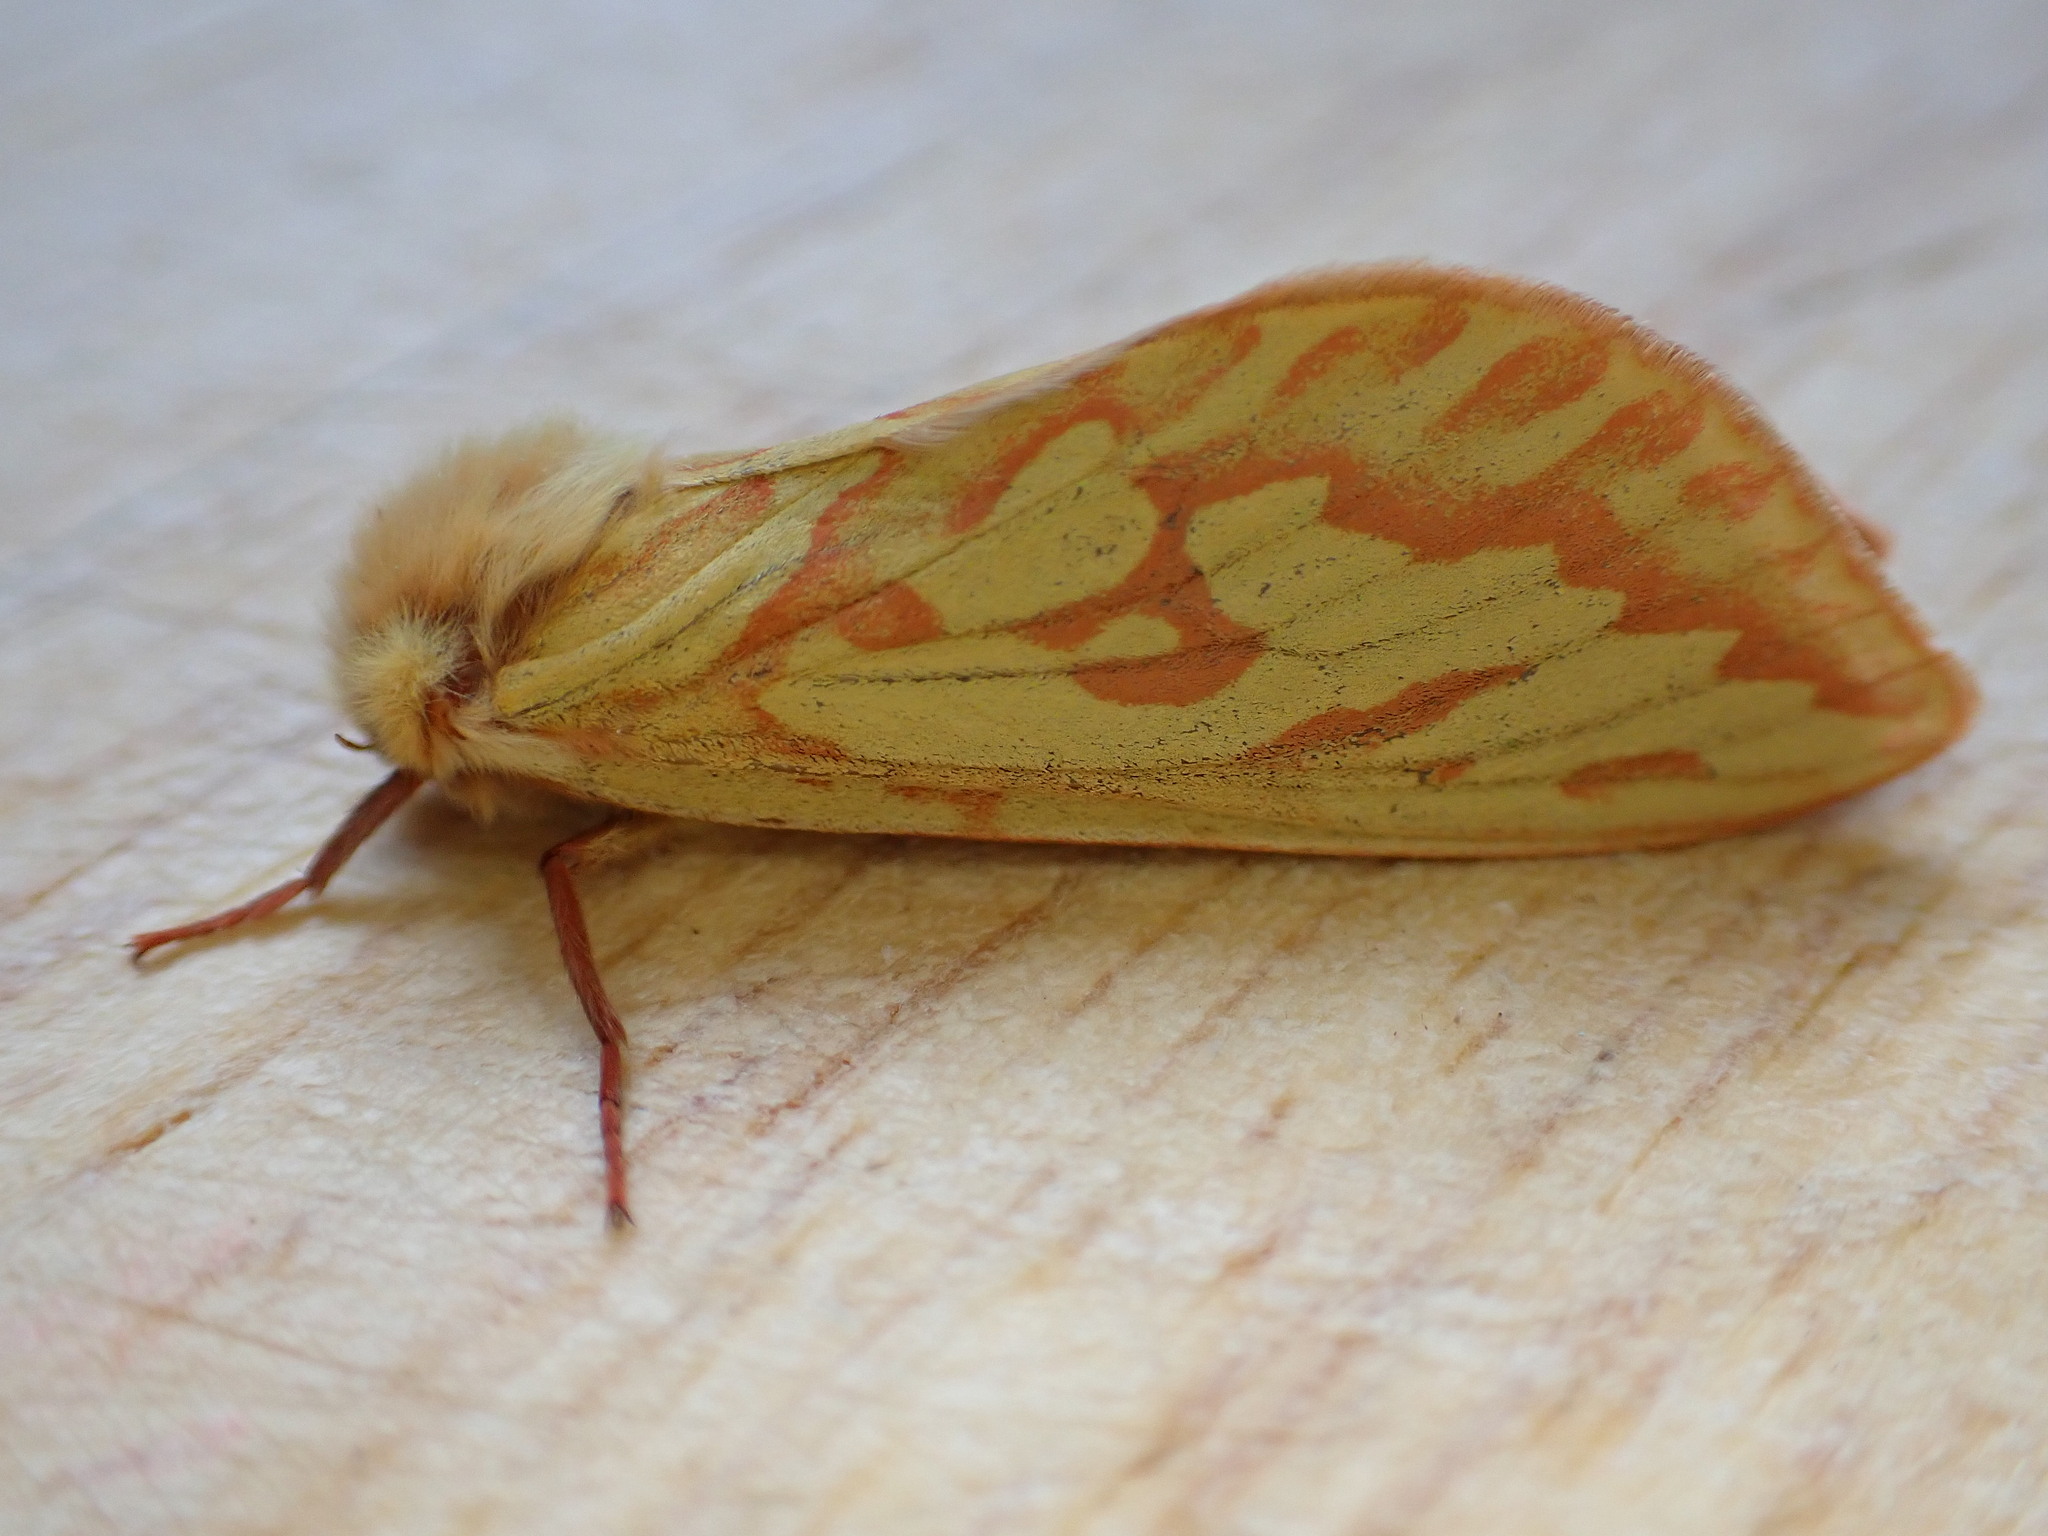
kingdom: Animalia
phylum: Arthropoda
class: Insecta
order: Lepidoptera
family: Hepialidae
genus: Hepialus
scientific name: Hepialus humuli
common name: Ghost moth
